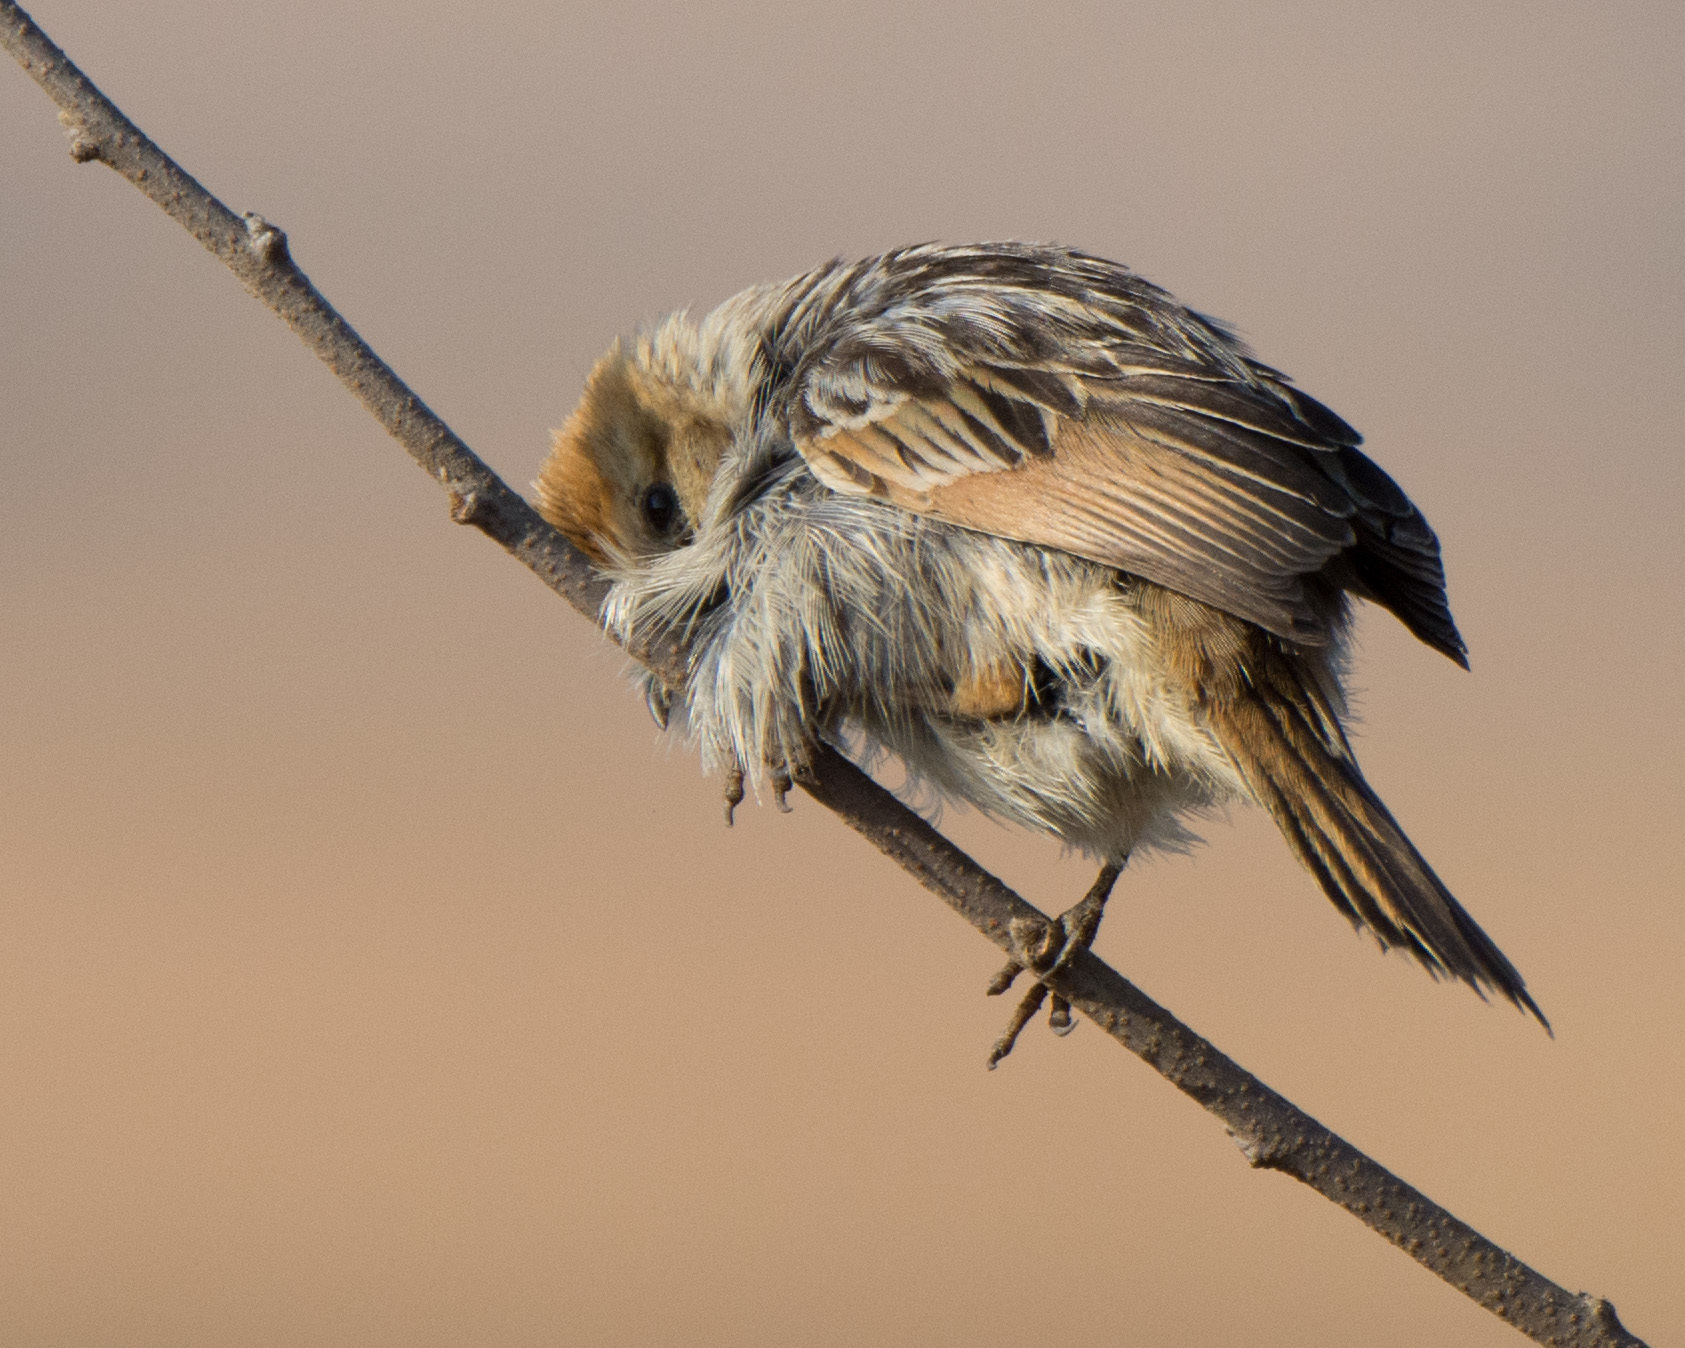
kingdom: Animalia
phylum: Chordata
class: Aves
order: Passeriformes
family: Cisticolidae
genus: Cisticola
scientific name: Cisticola tinniens
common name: Levaillant's cisticola
